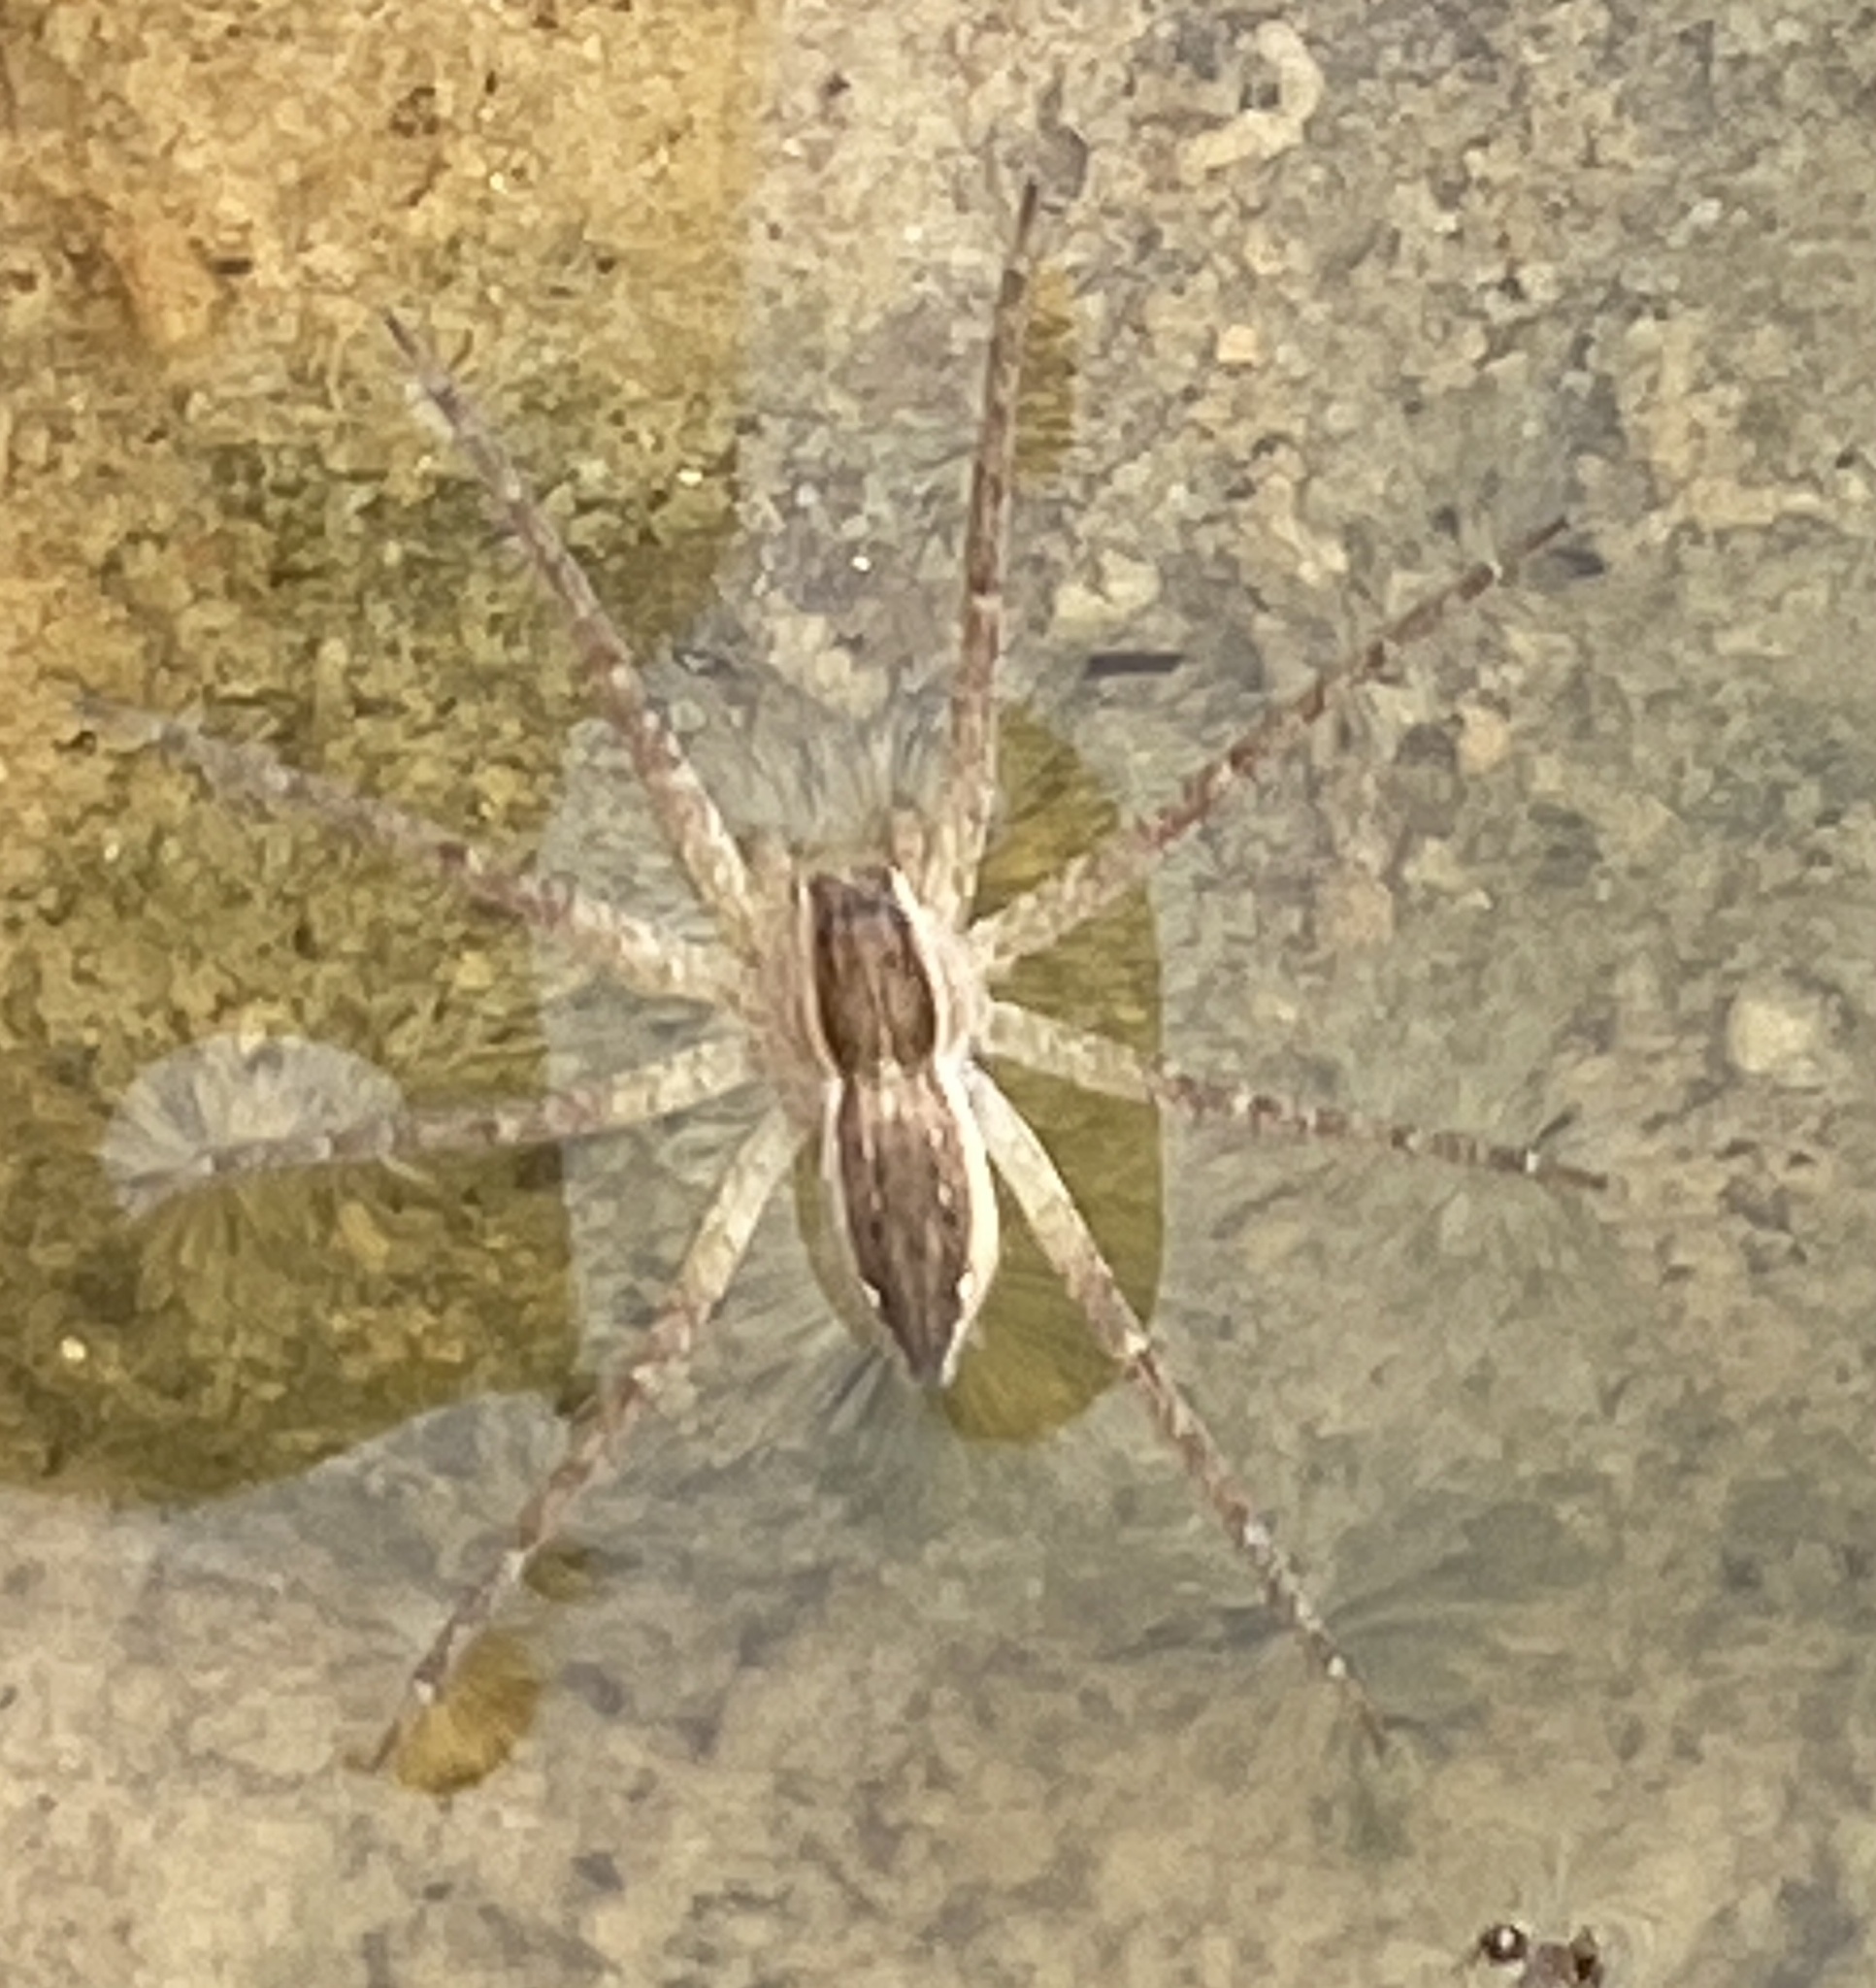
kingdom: Animalia
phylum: Arthropoda
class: Arachnida
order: Araneae
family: Pisauridae
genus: Nilus
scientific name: Nilus massajae
